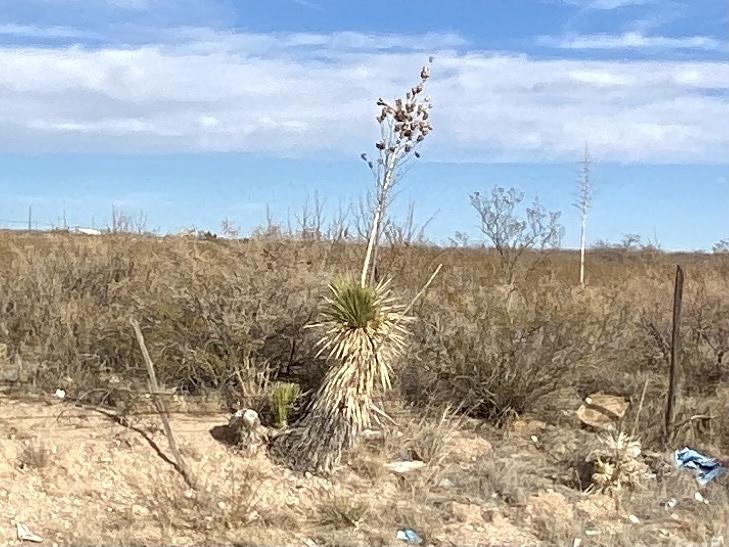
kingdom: Plantae
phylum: Tracheophyta
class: Liliopsida
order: Asparagales
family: Asparagaceae
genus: Yucca
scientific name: Yucca elata
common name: Palmella
